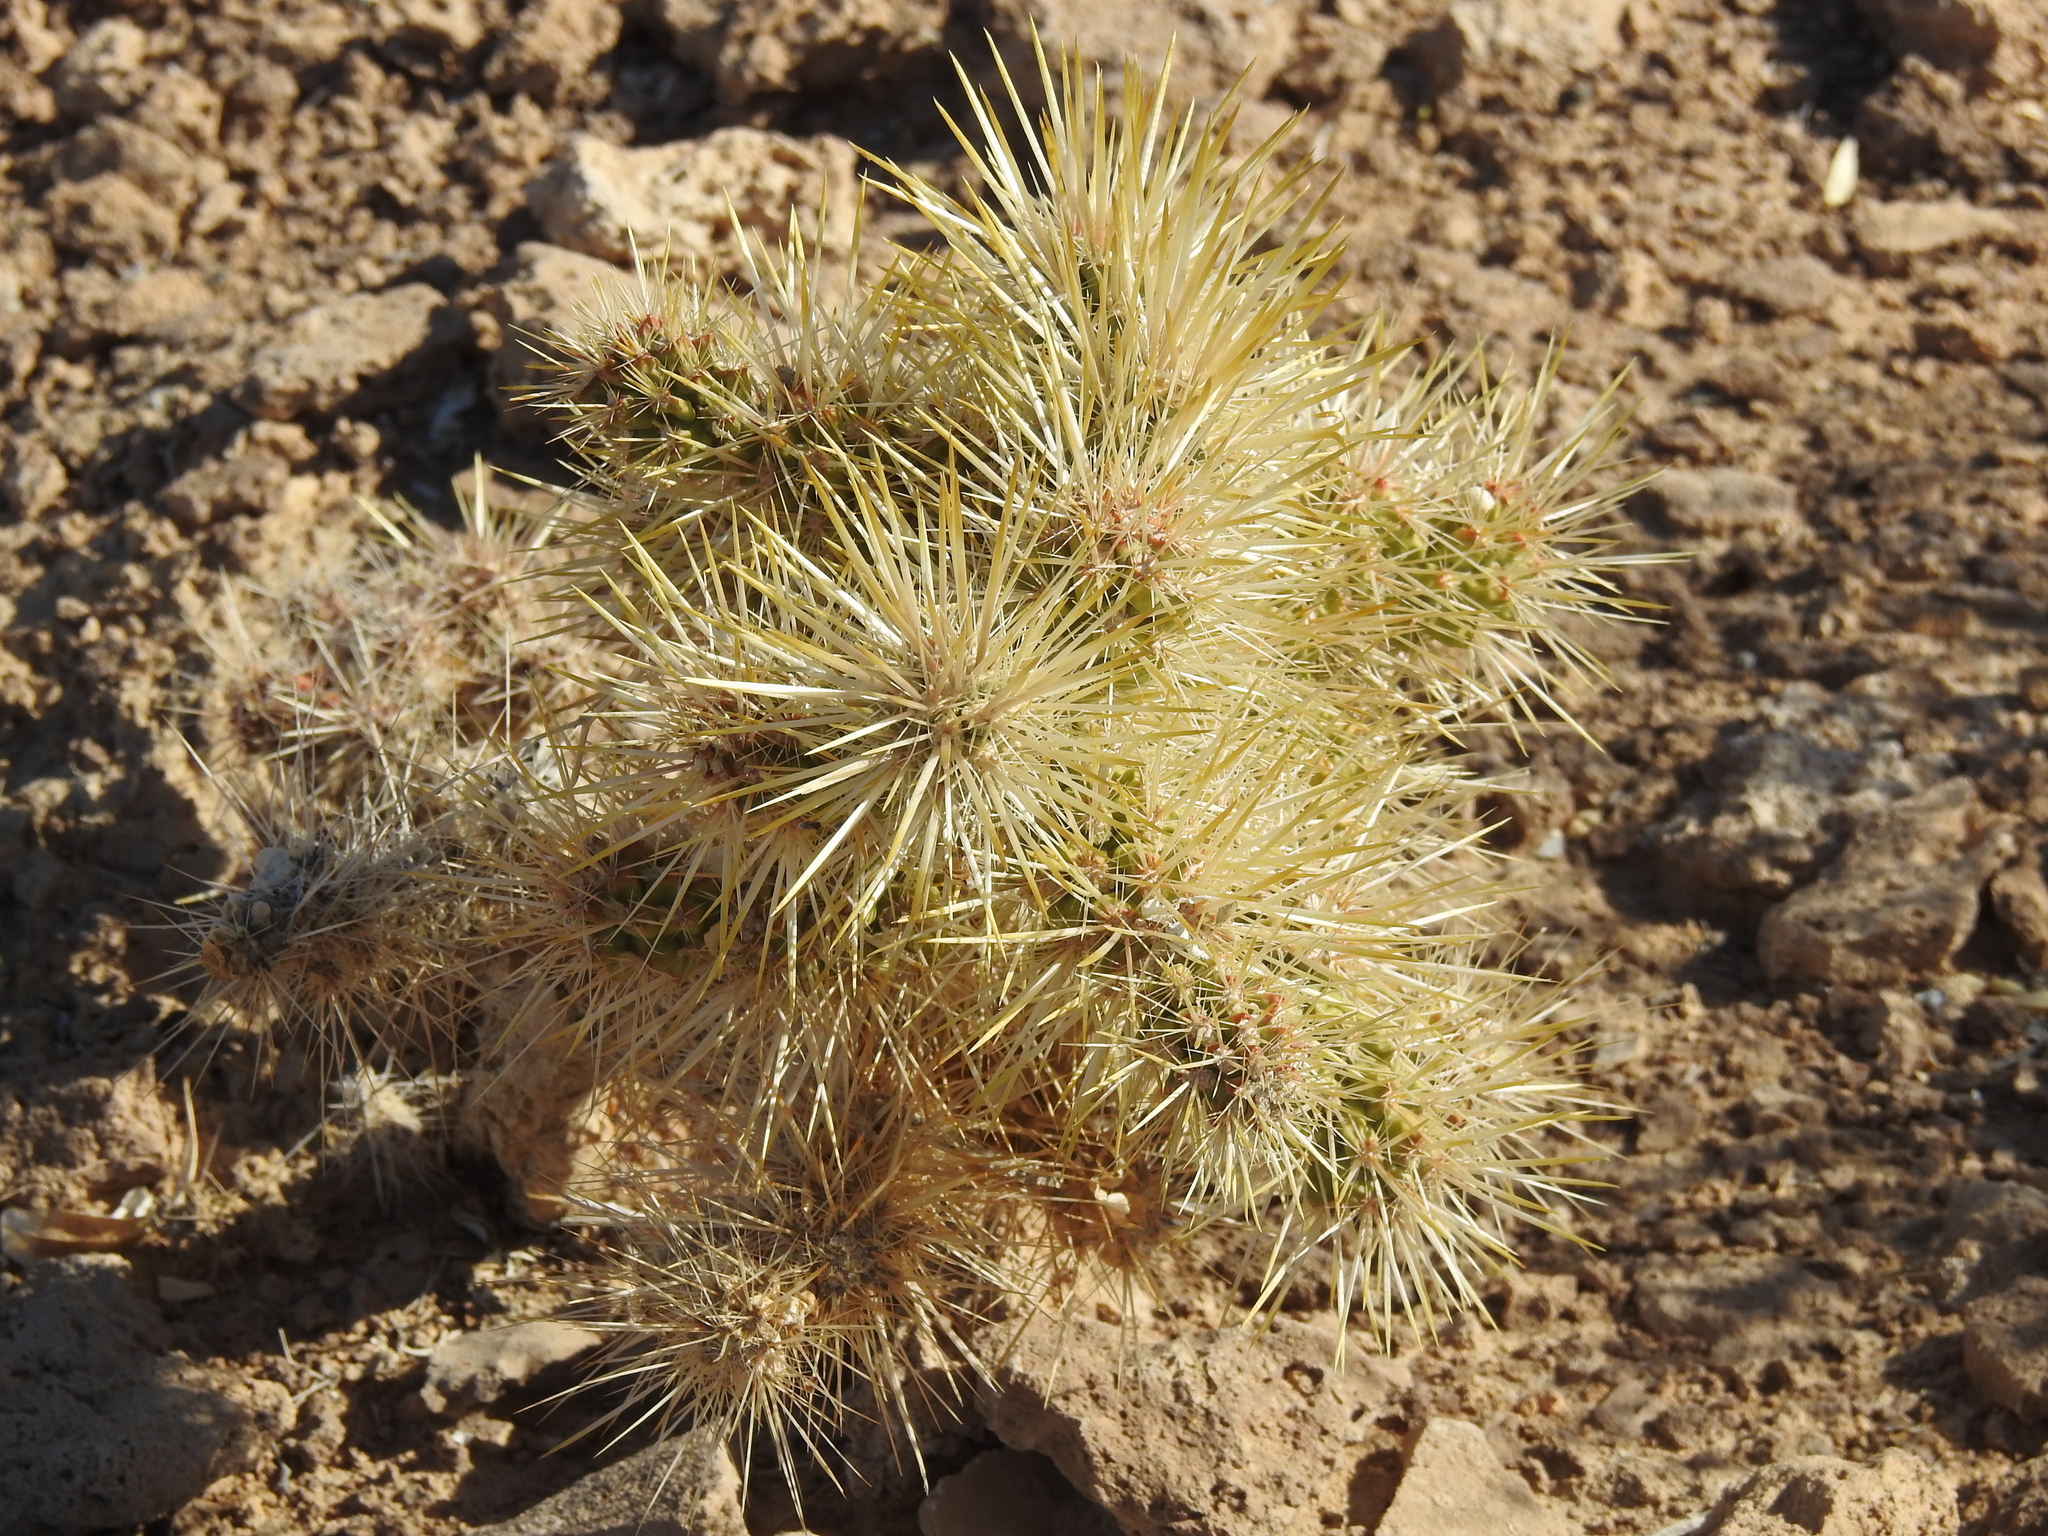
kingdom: Plantae
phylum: Tracheophyta
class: Magnoliopsida
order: Caryophyllales
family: Cactaceae
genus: Cylindropuntia
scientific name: Cylindropuntia echinocarpa
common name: Ground cholla
